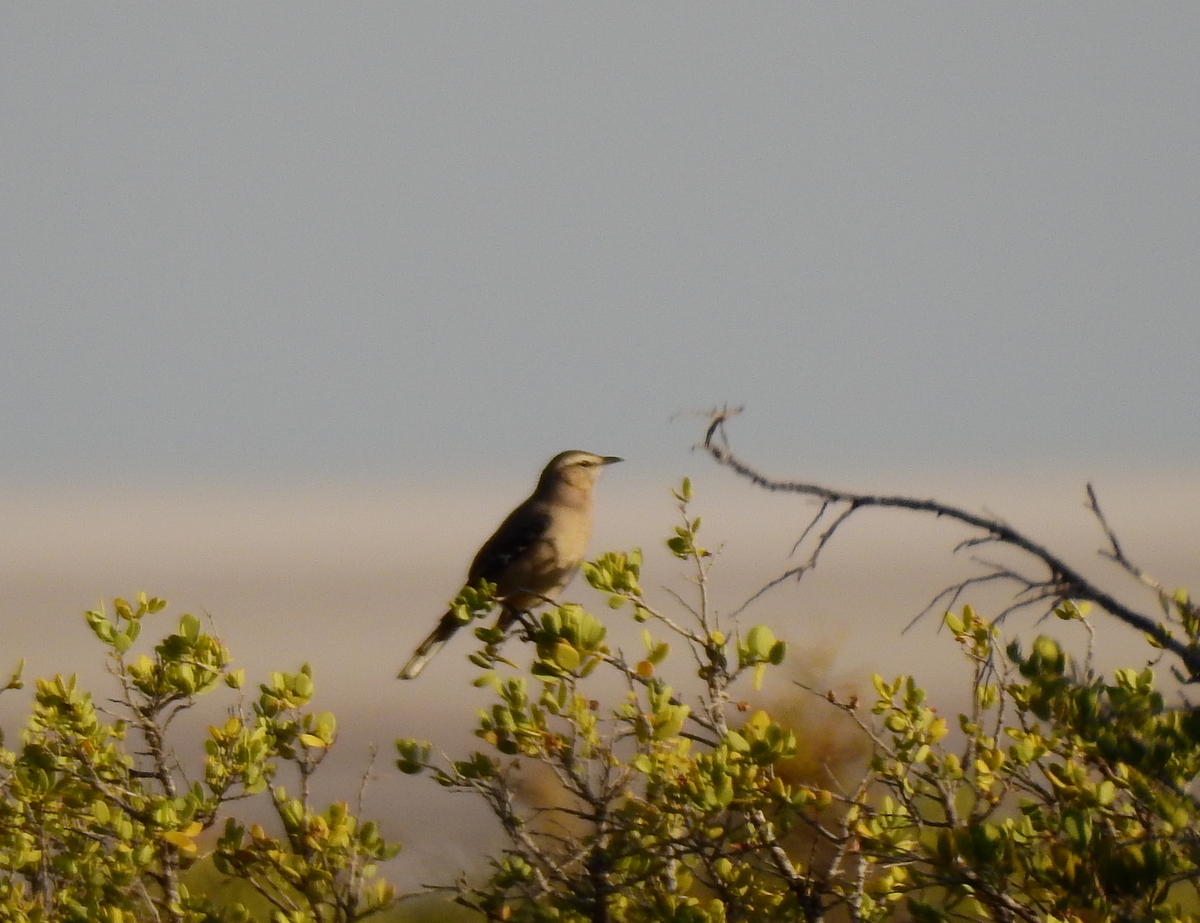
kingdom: Animalia
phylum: Chordata
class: Aves
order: Passeriformes
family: Mimidae
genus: Mimus
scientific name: Mimus patagonicus
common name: Patagonian mockingbird
